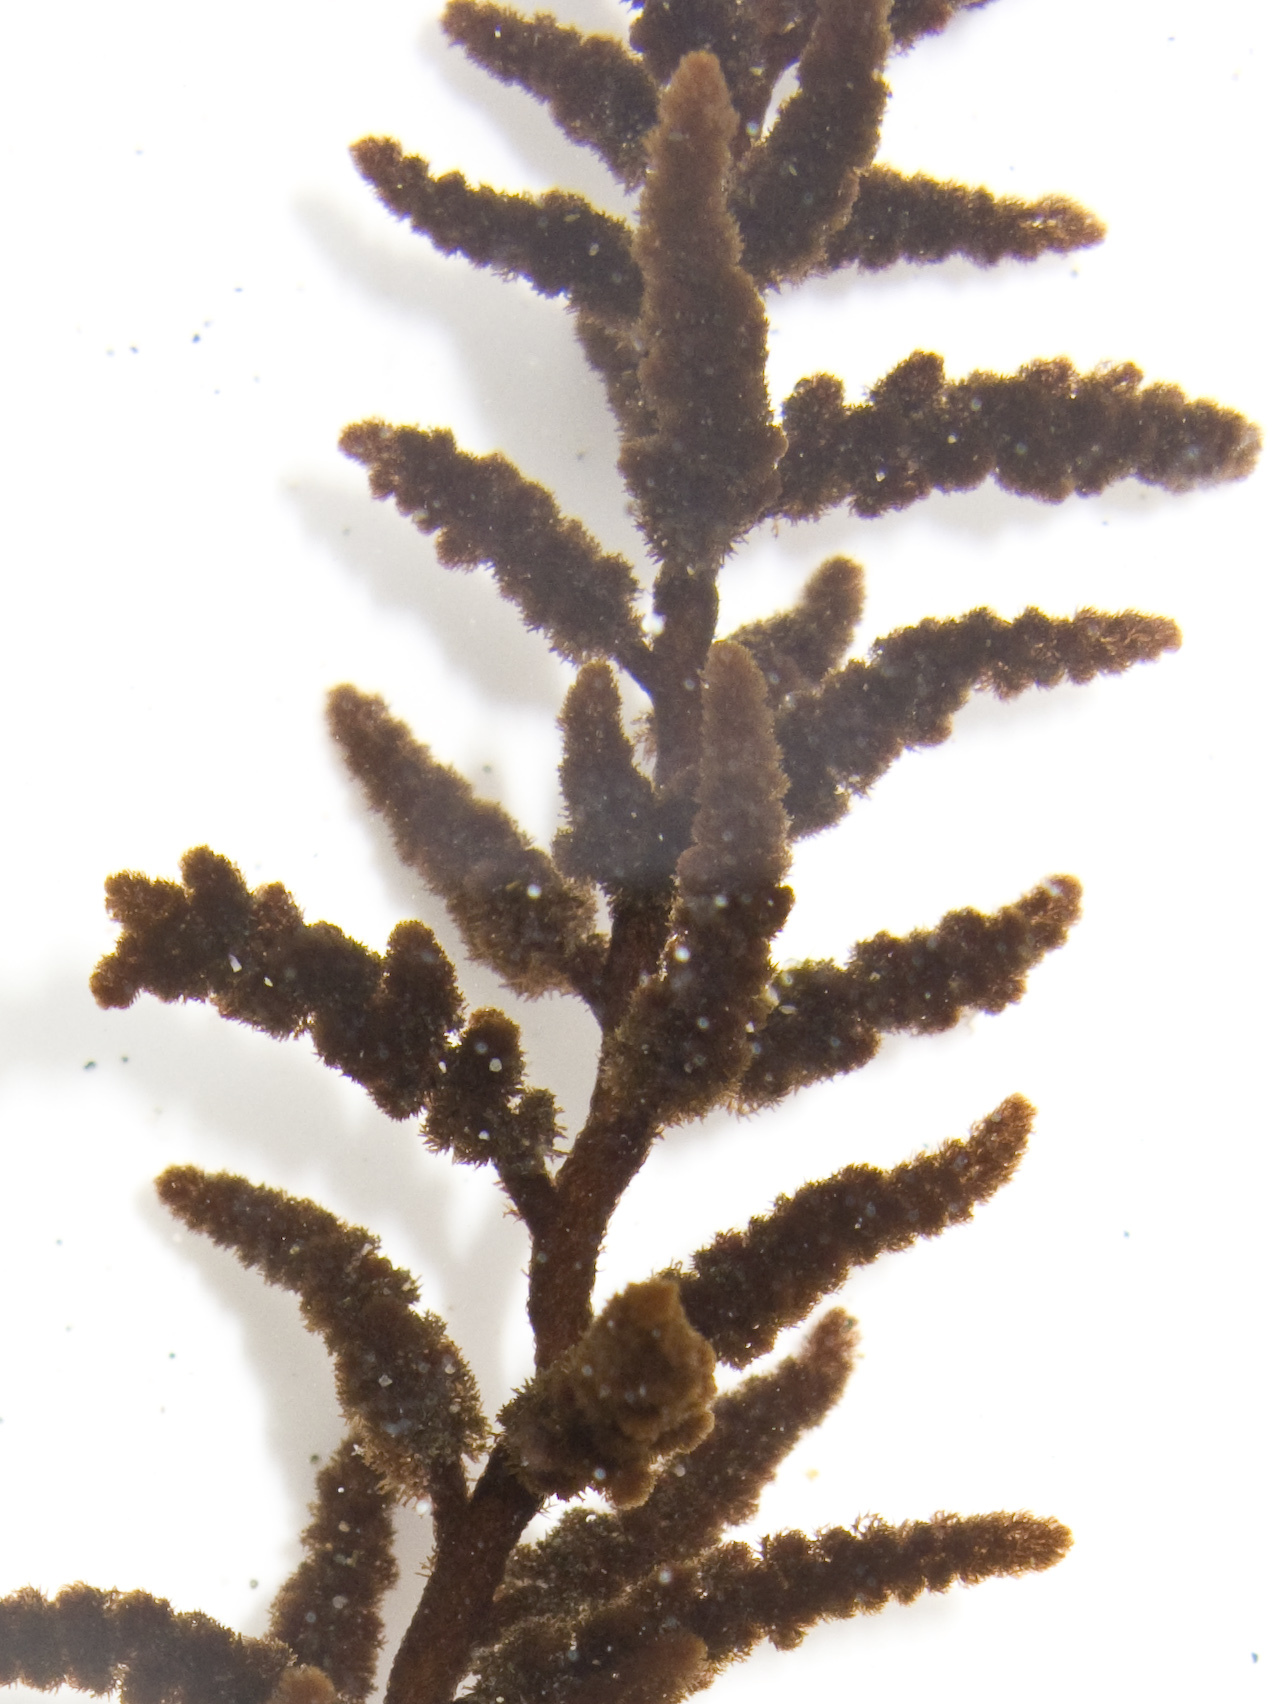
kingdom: Plantae
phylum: Rhodophyta
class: Florideophyceae
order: Ceramiales
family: Callithamniaceae
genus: Callithamnion
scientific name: Callithamnion pikeanum
